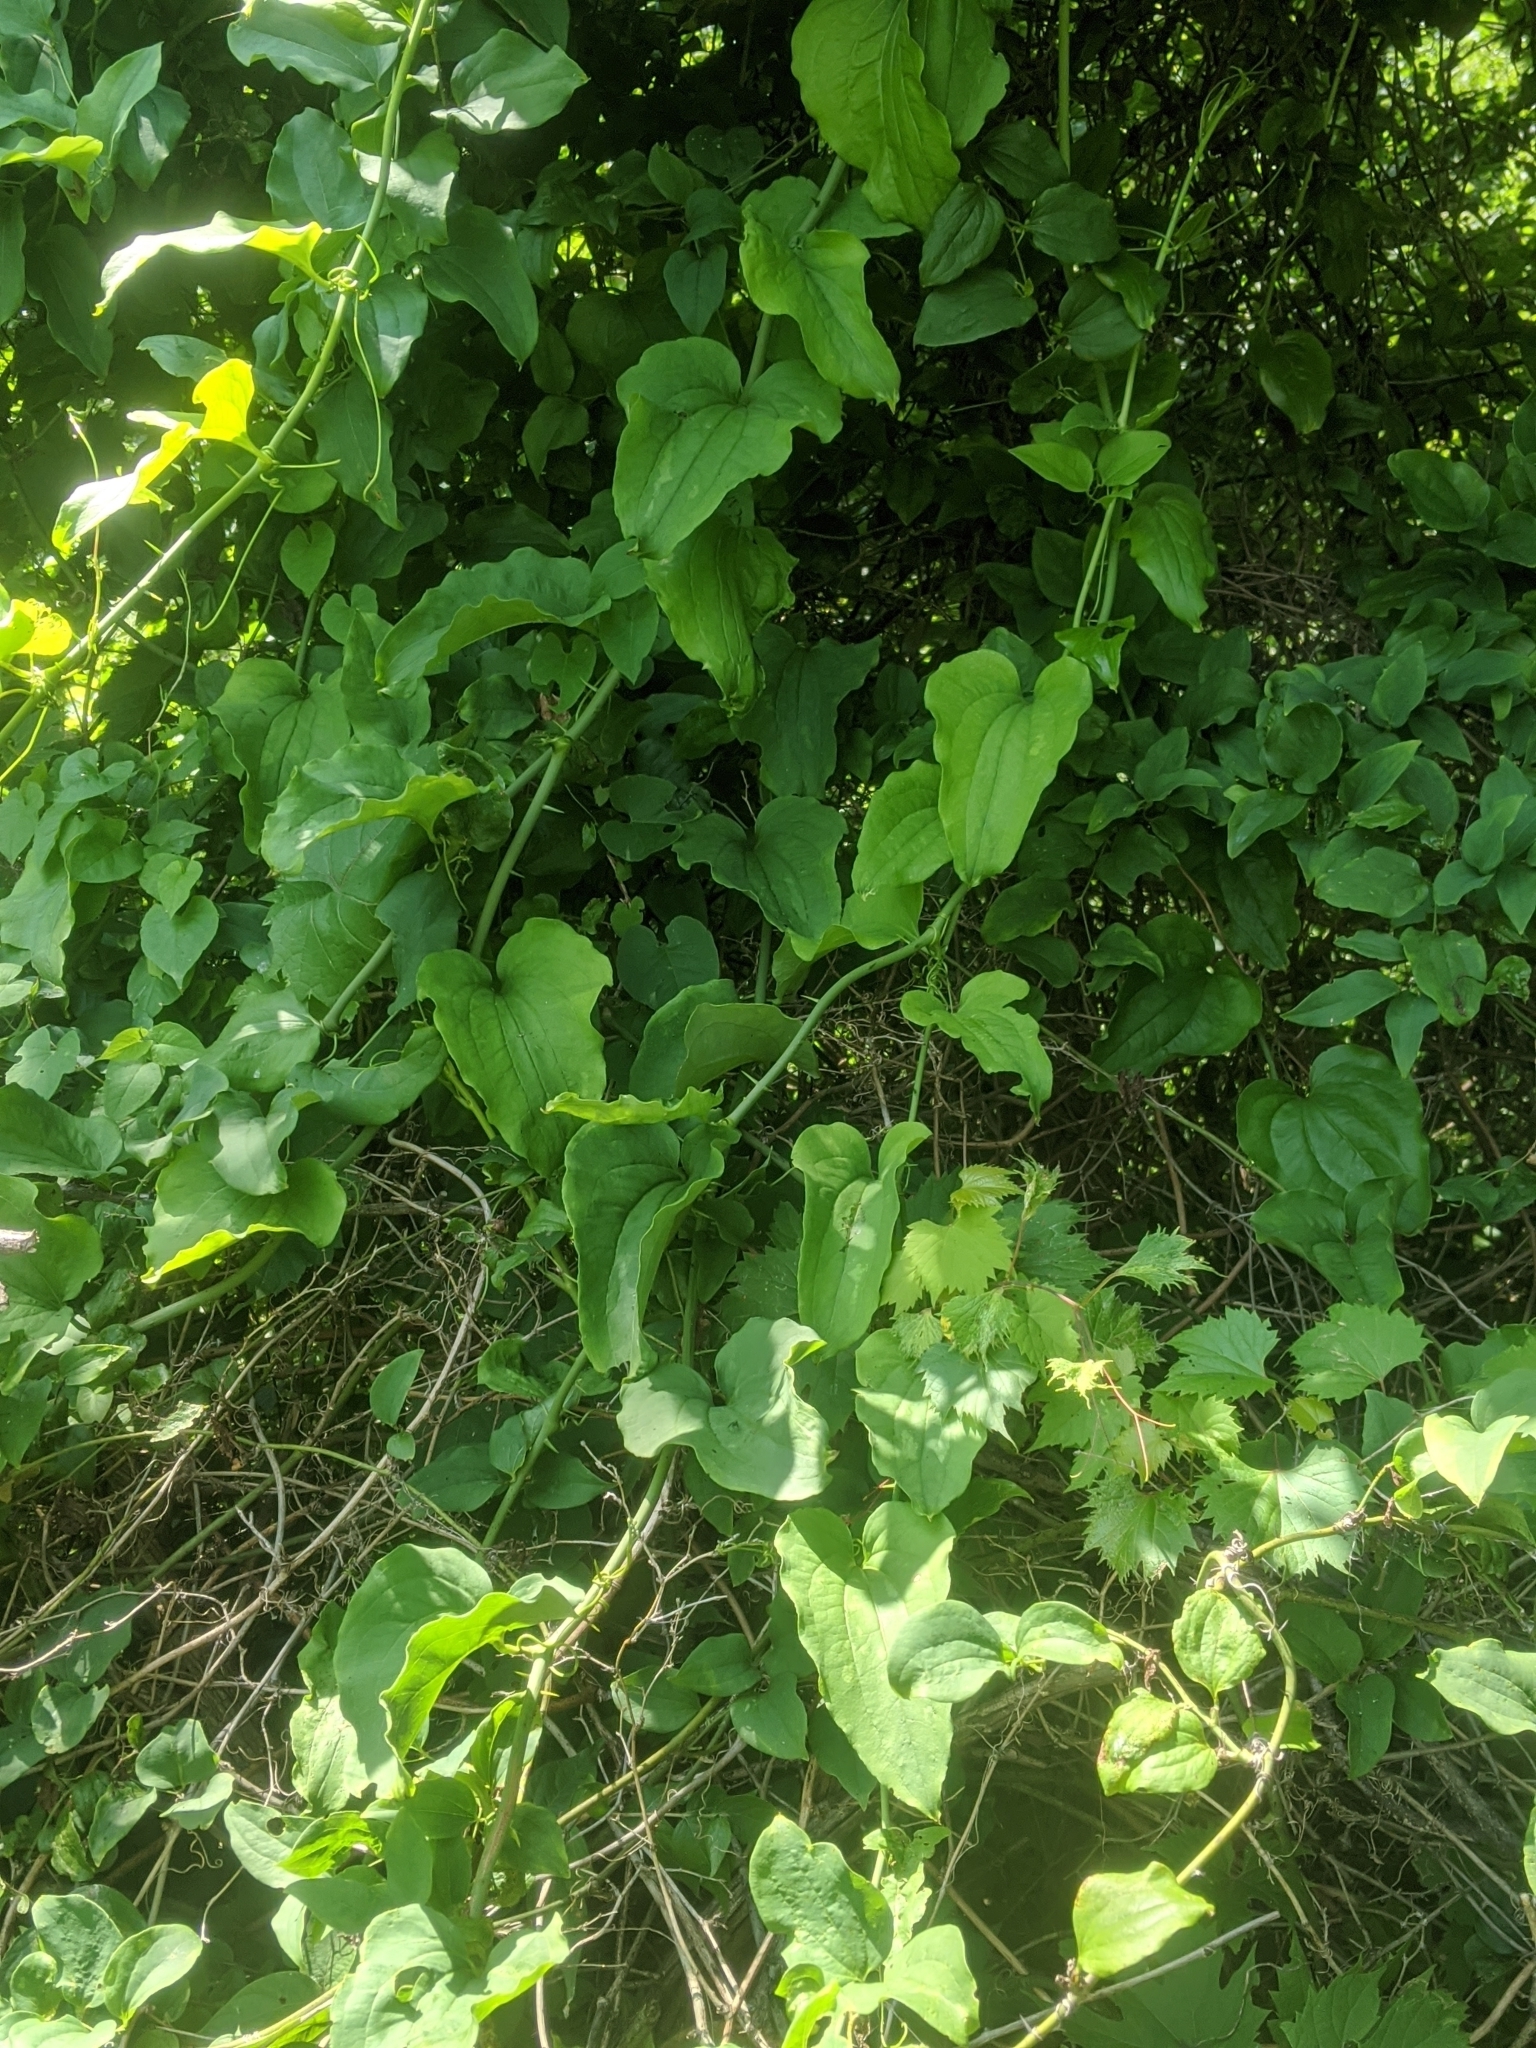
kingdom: Plantae
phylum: Tracheophyta
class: Liliopsida
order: Liliales
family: Smilacaceae
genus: Smilax
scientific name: Smilax tamnoides
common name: Hellfetter
